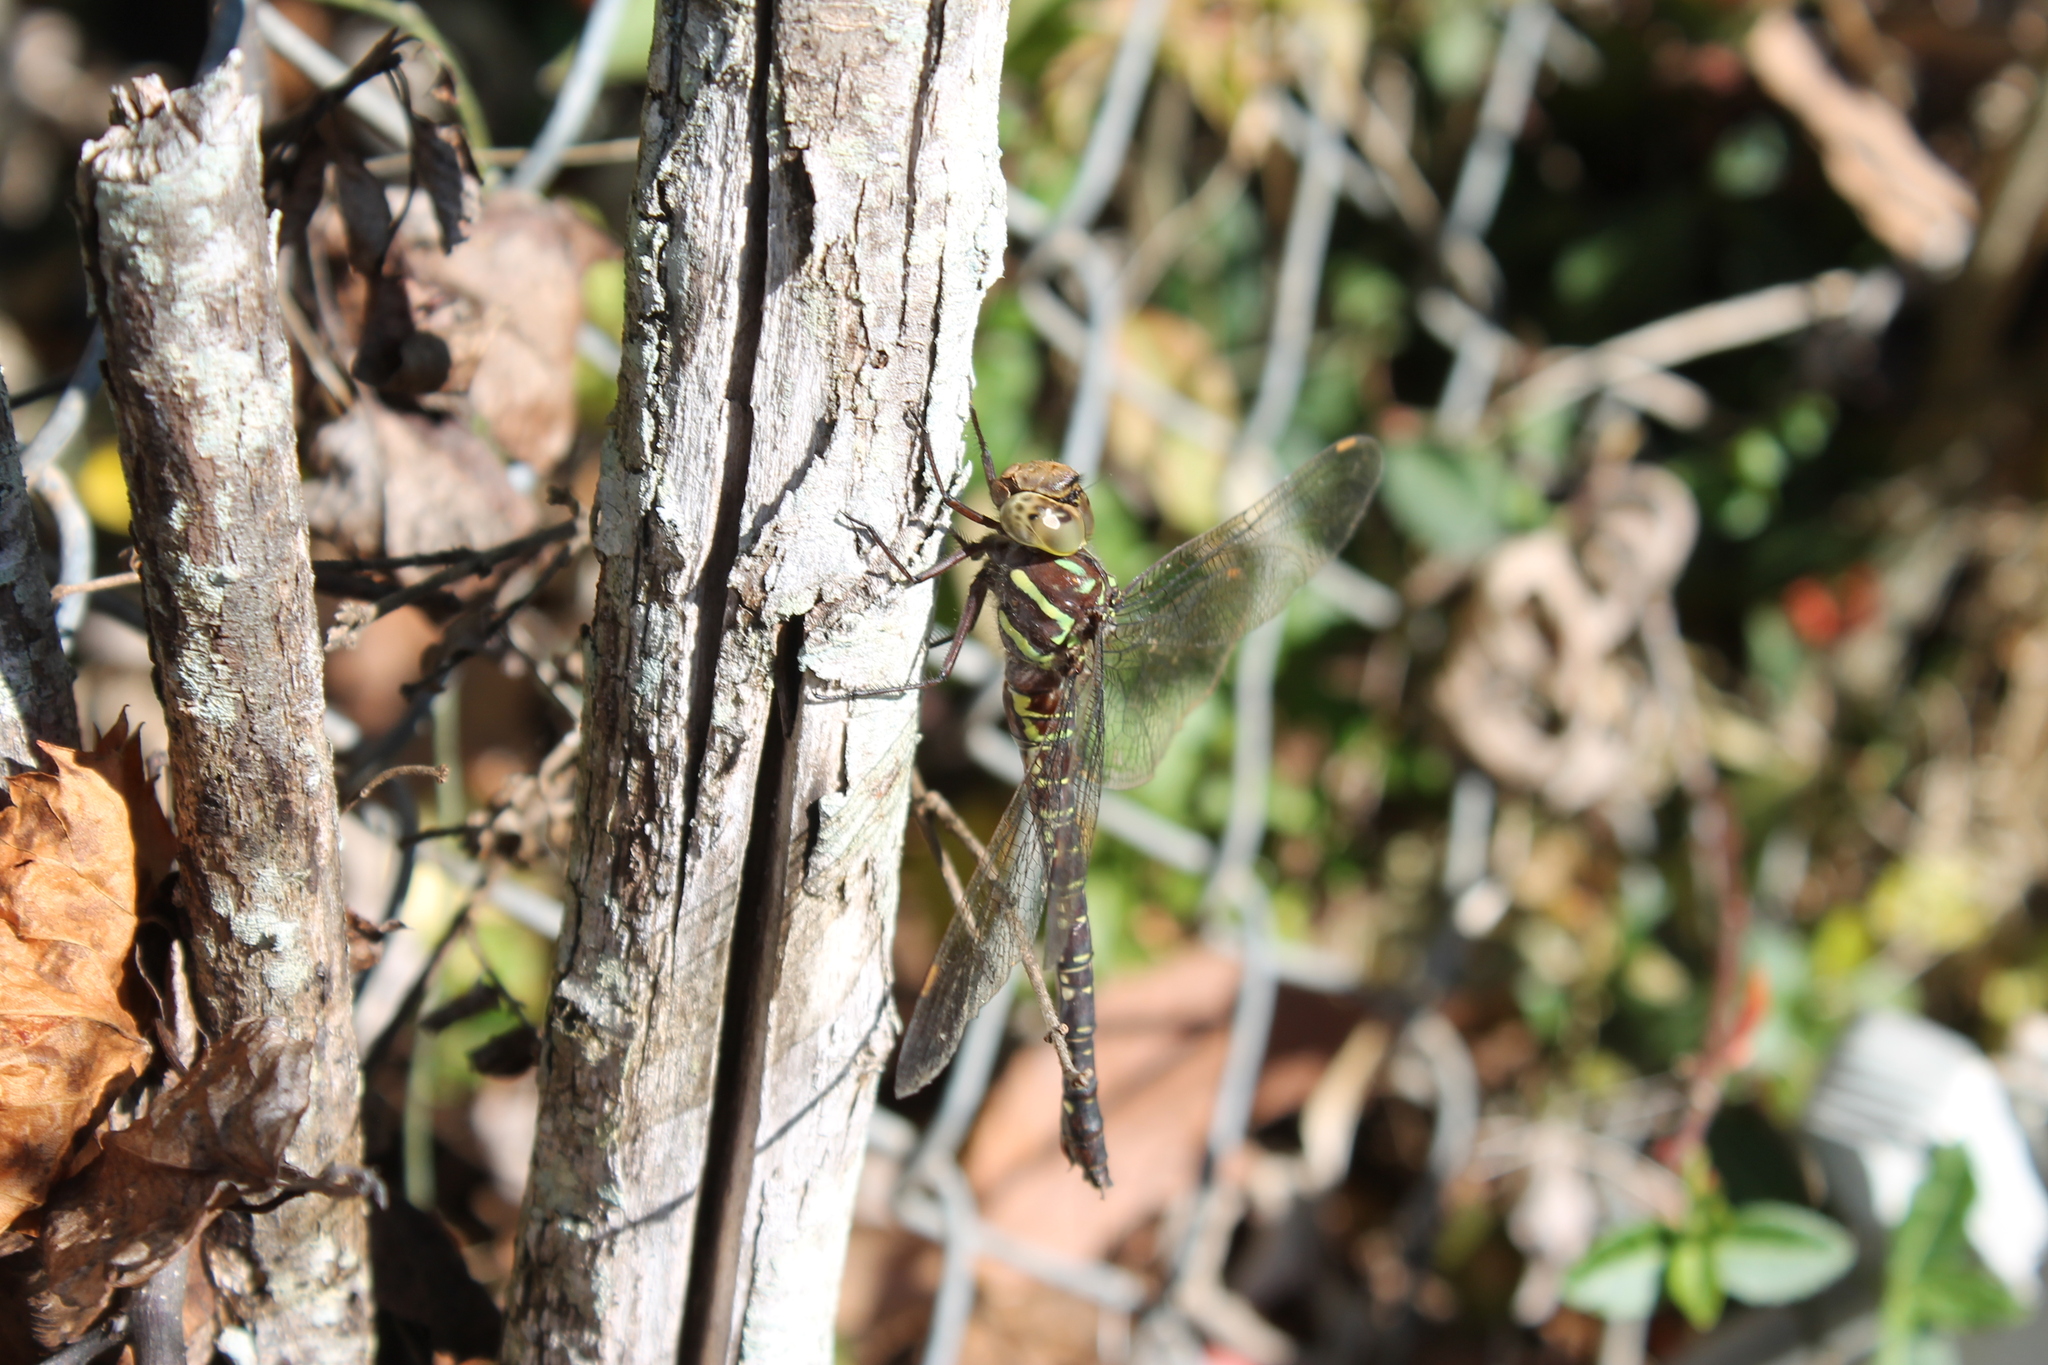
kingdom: Animalia
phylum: Arthropoda
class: Insecta
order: Odonata
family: Aeshnidae
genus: Aeshna
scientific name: Aeshna umbrosa
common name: Shadow darner
